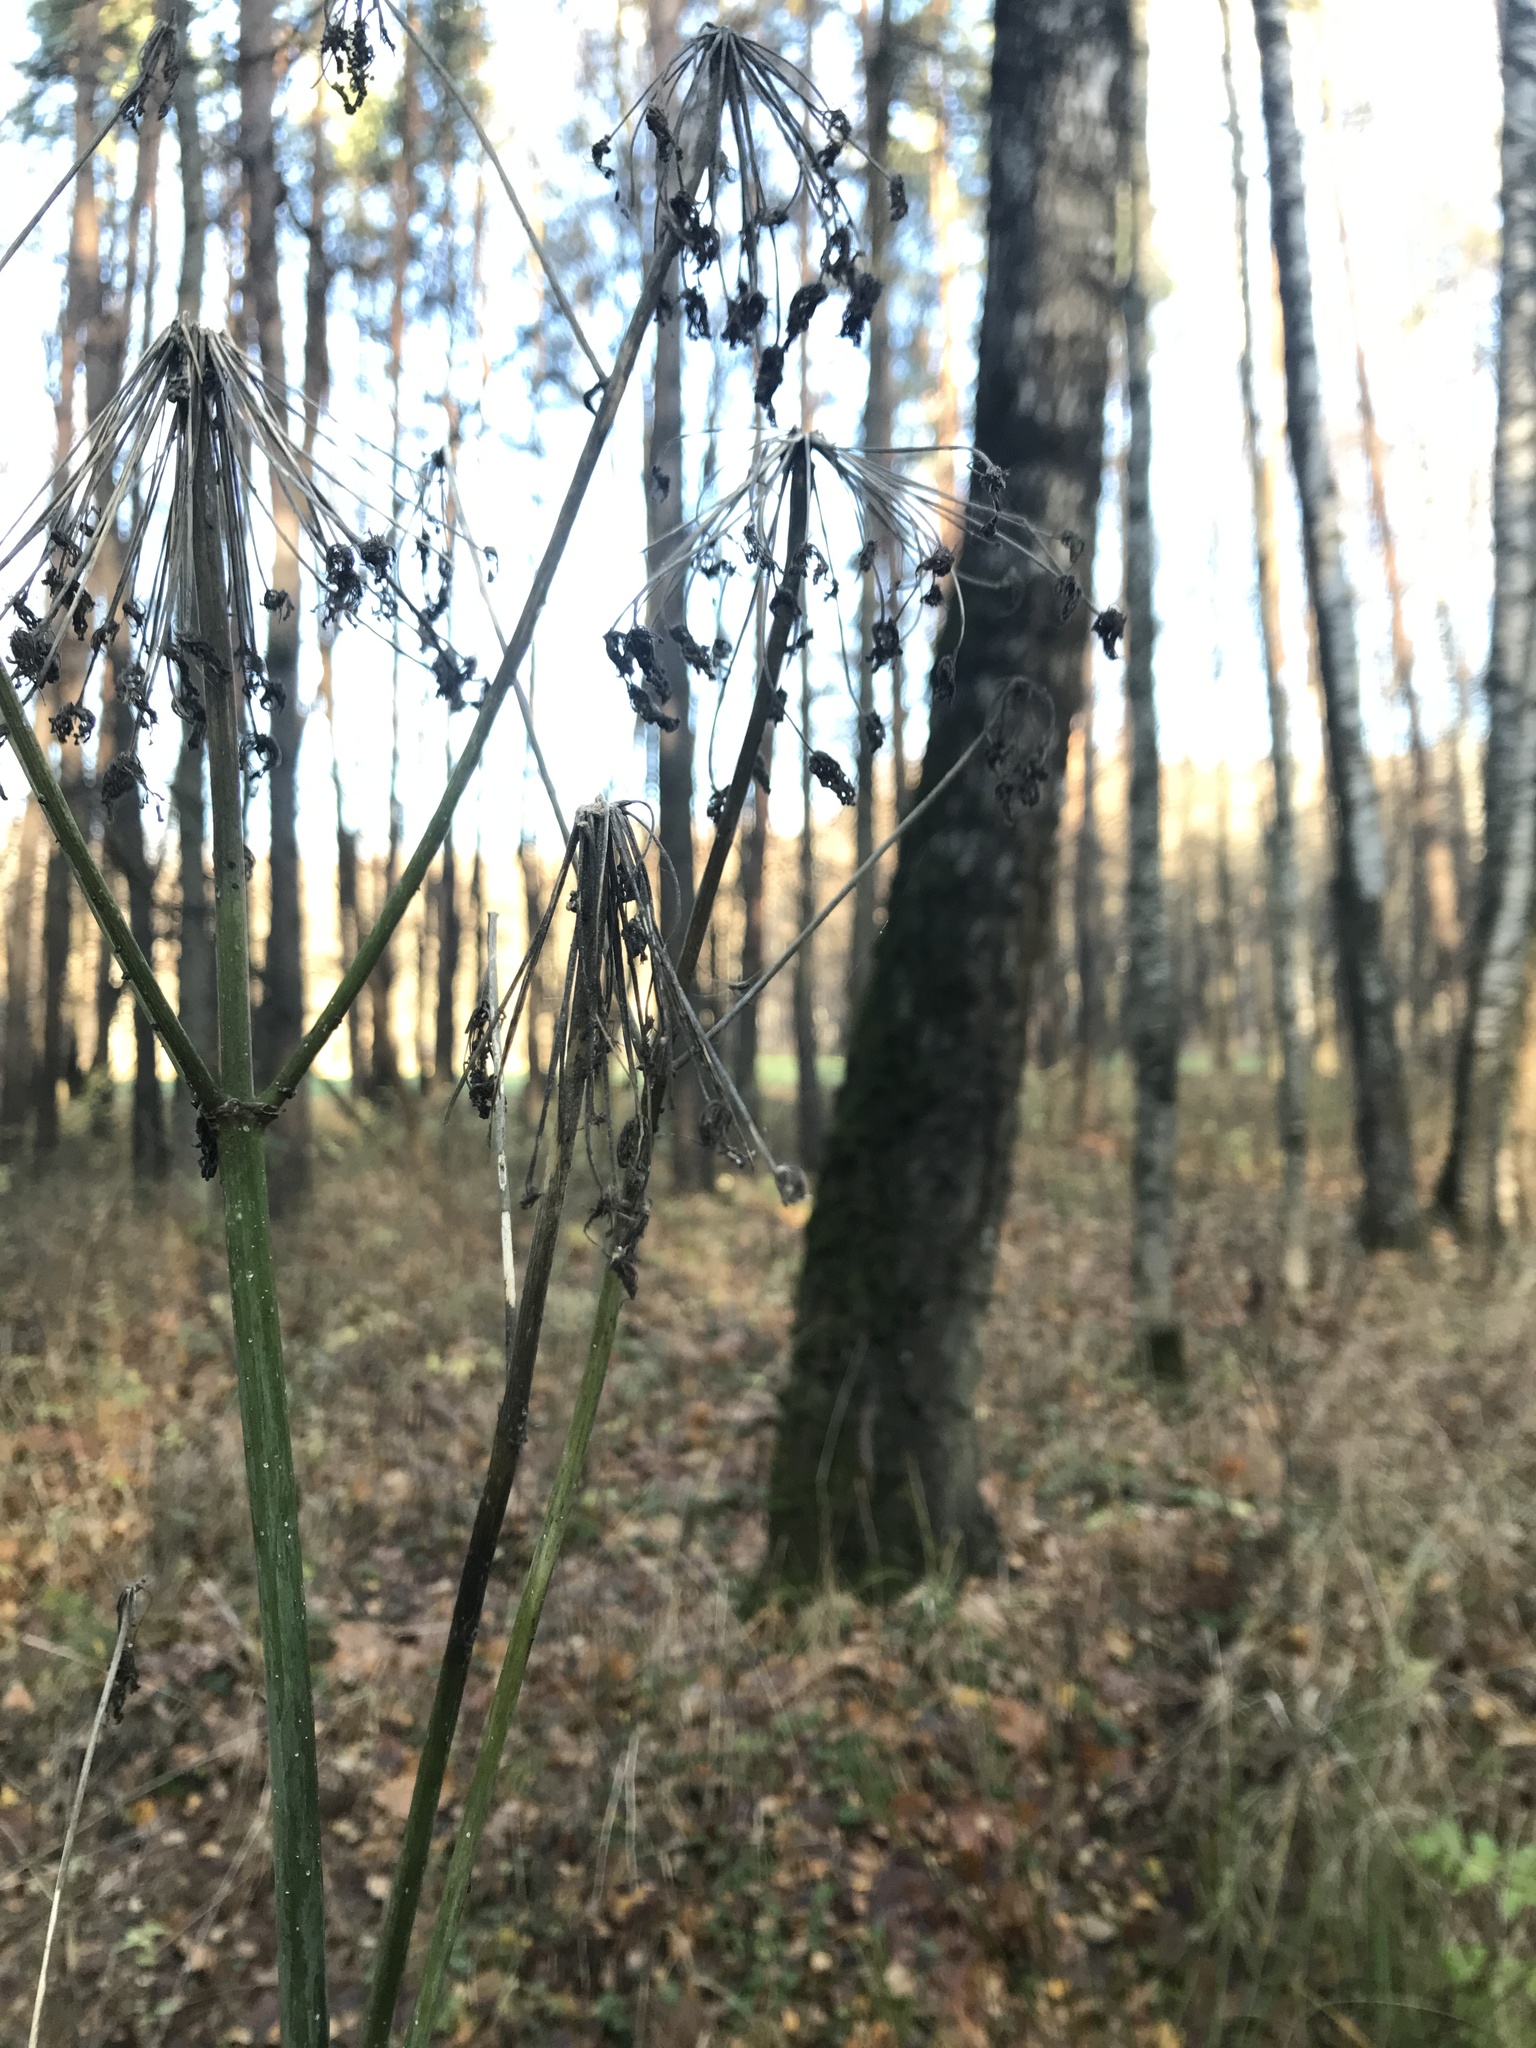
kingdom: Plantae
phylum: Tracheophyta
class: Magnoliopsida
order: Apiales
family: Apiaceae
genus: Angelica
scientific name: Angelica sylvestris
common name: Wild angelica
